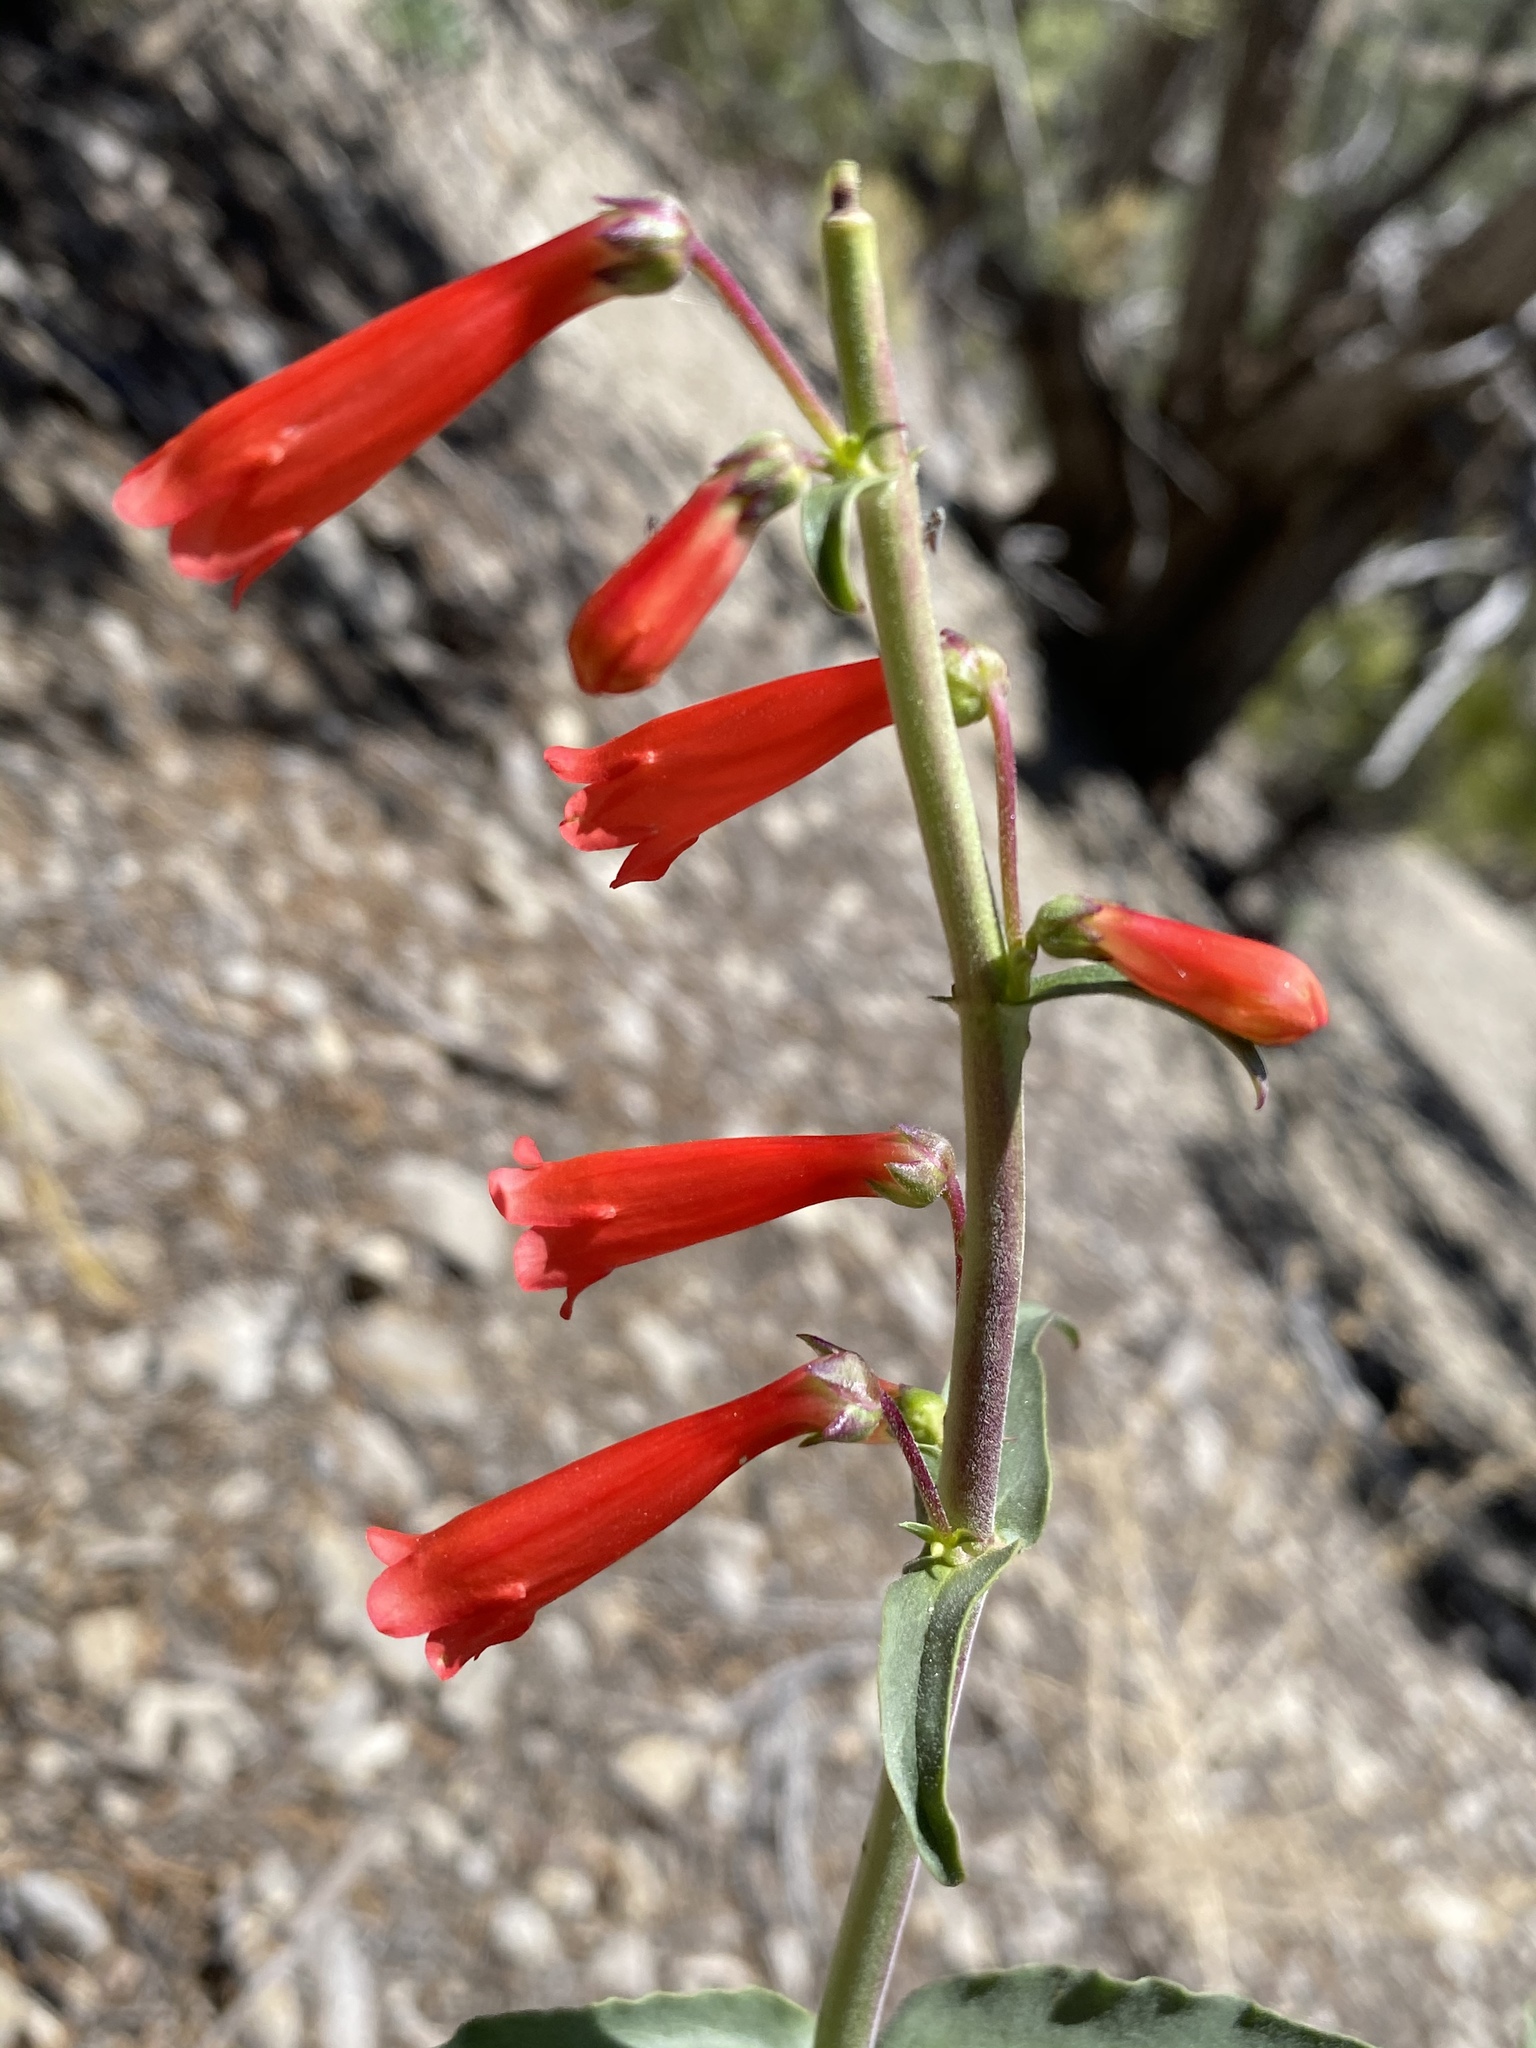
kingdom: Plantae
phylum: Tracheophyta
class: Magnoliopsida
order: Lamiales
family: Plantaginaceae
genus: Penstemon
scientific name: Penstemon eatonii
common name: Eaton's penstemon
